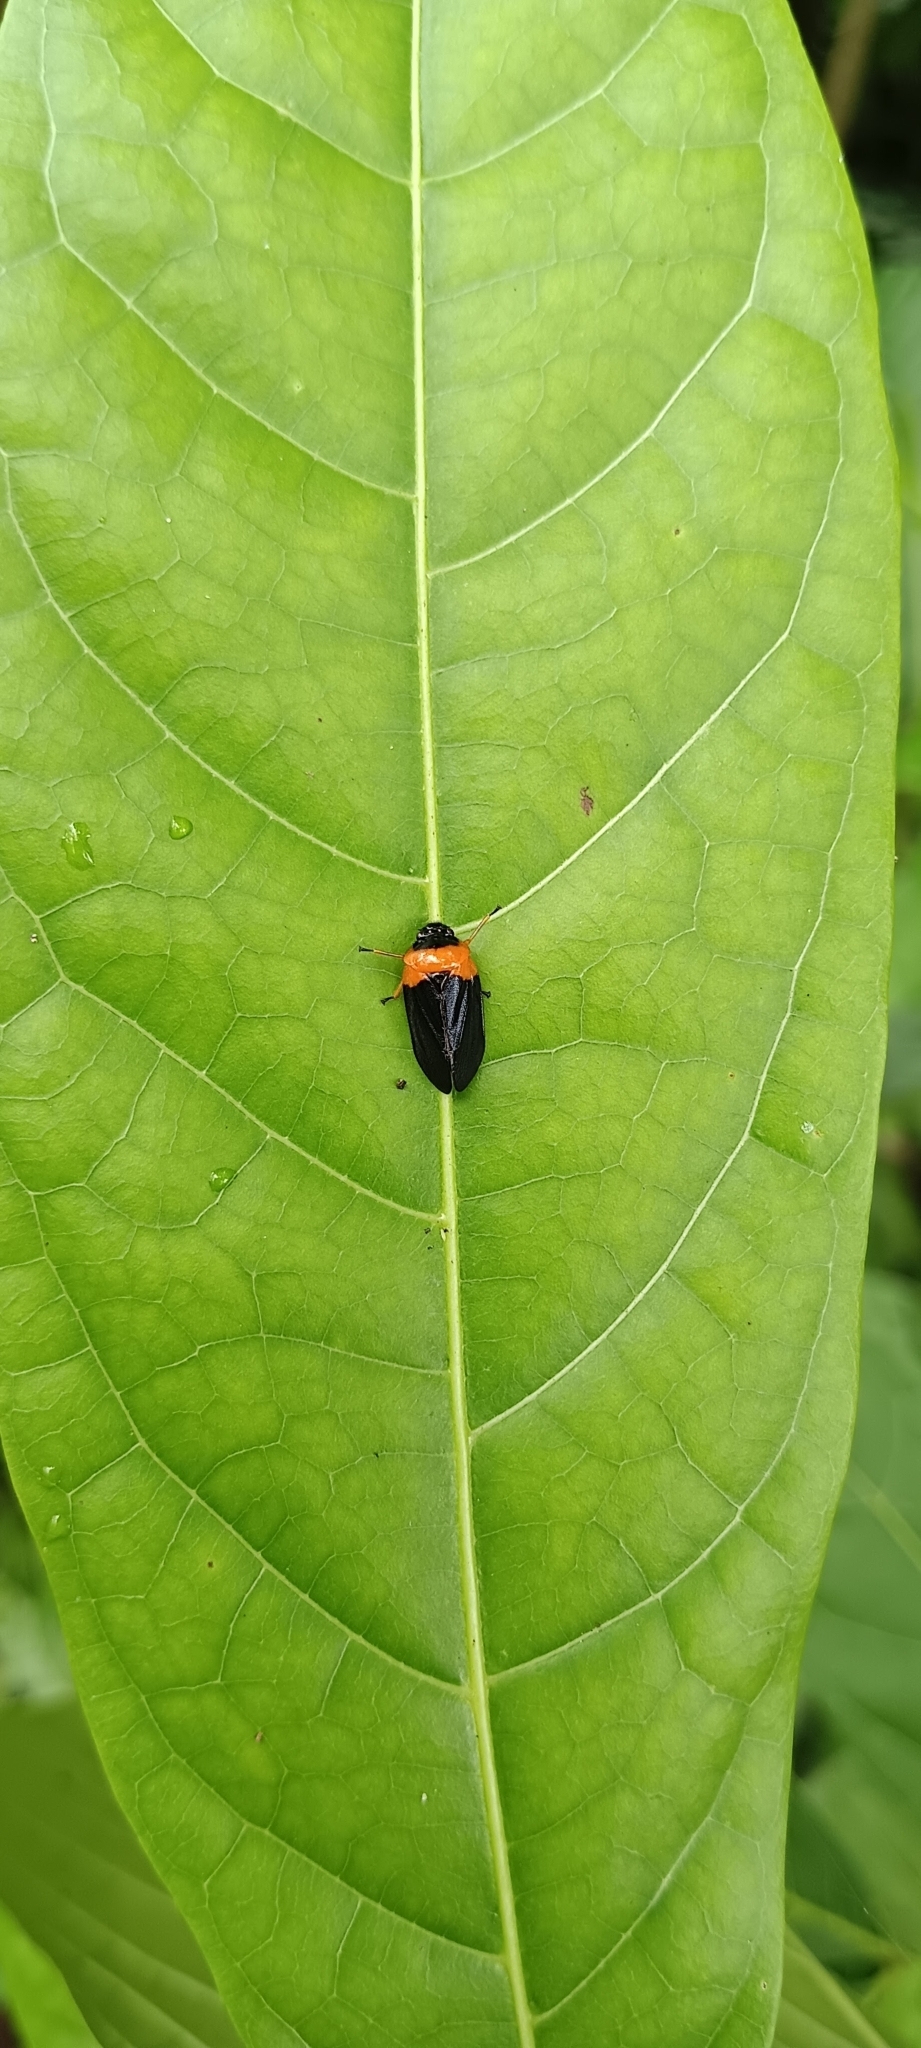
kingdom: Animalia
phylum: Arthropoda
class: Insecta
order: Hemiptera
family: Cercopidae
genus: Phymatostetha
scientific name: Phymatostetha deschampsi
